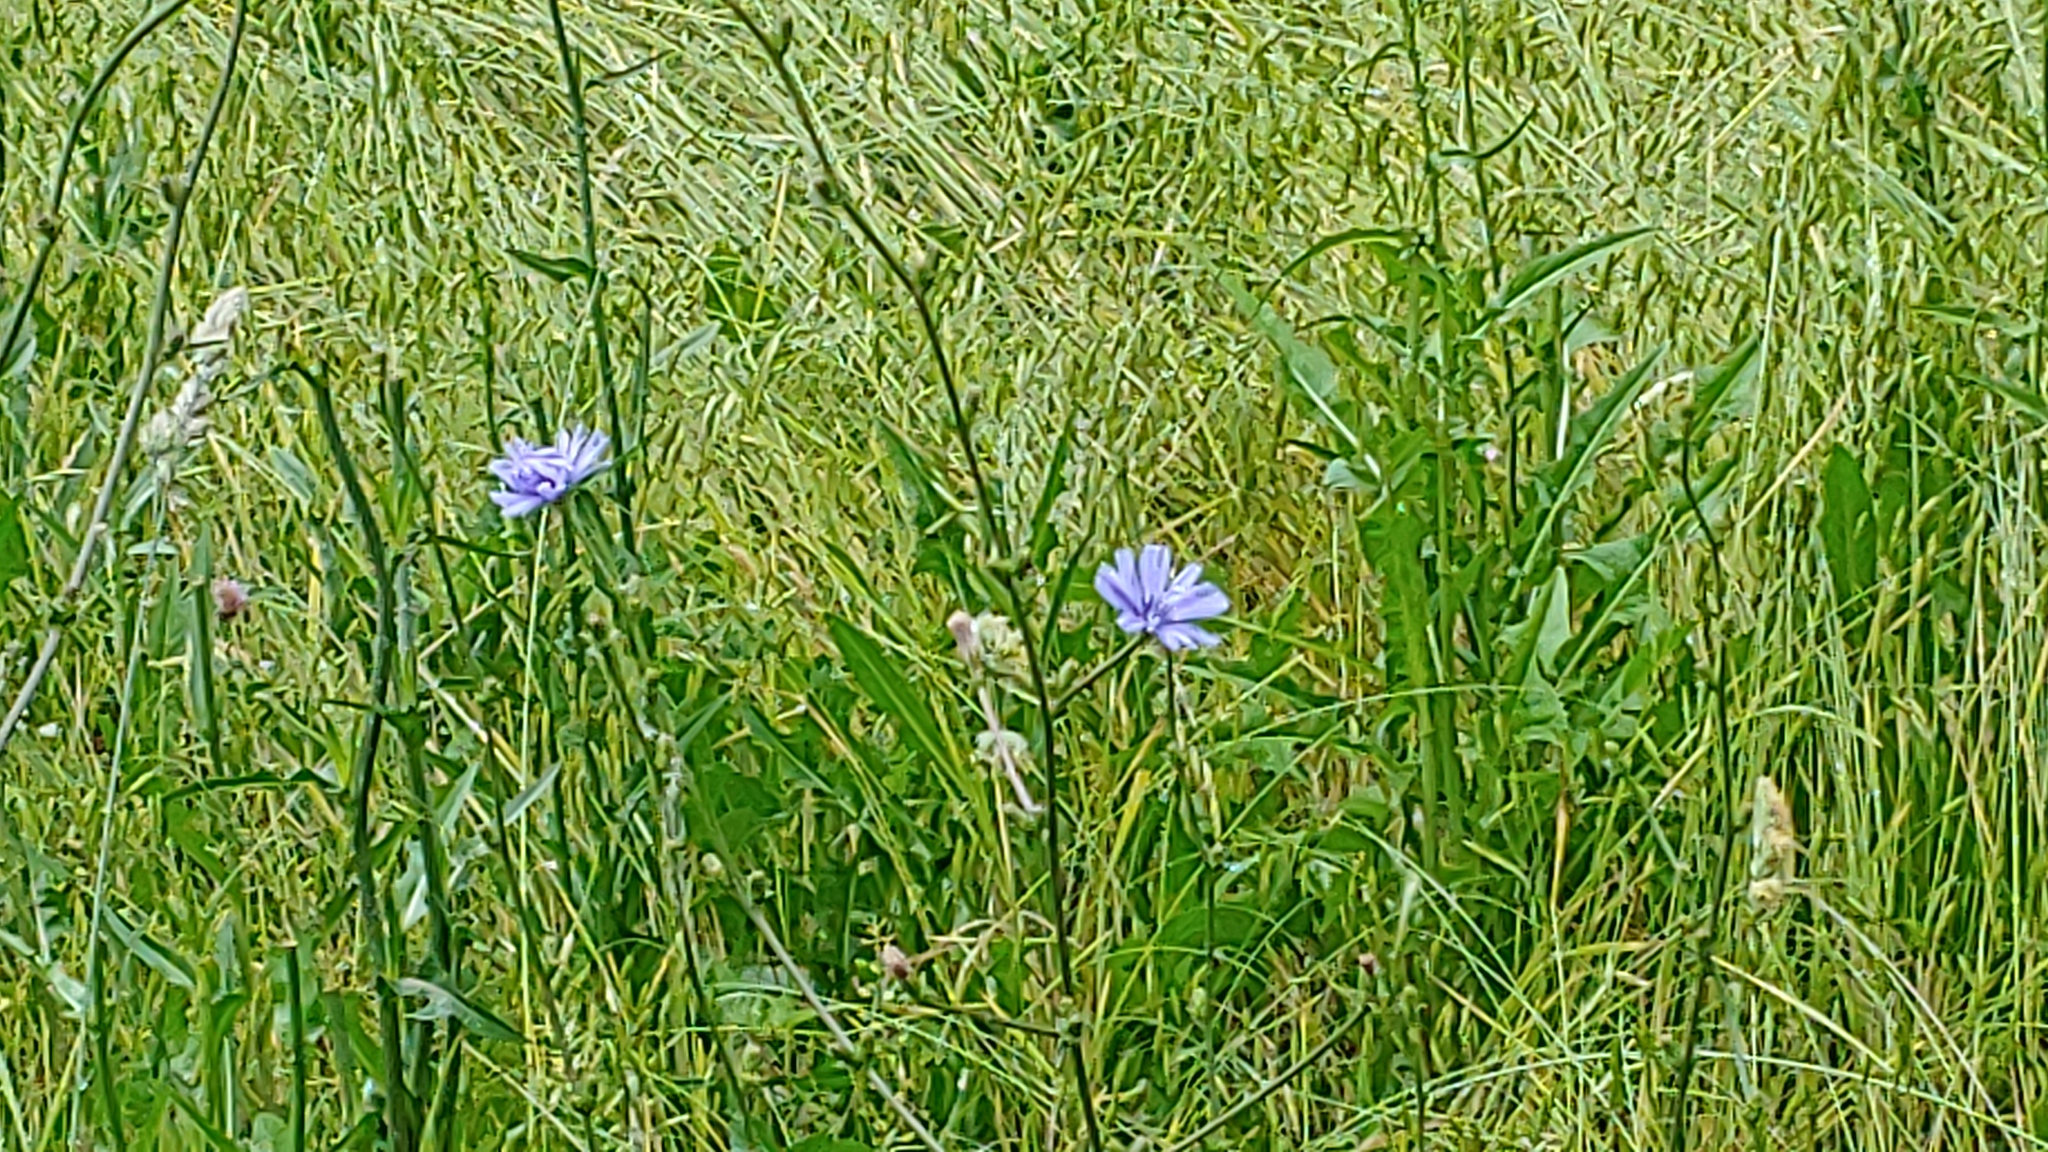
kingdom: Plantae
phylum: Tracheophyta
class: Magnoliopsida
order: Asterales
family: Asteraceae
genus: Cichorium
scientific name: Cichorium intybus
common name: Chicory
